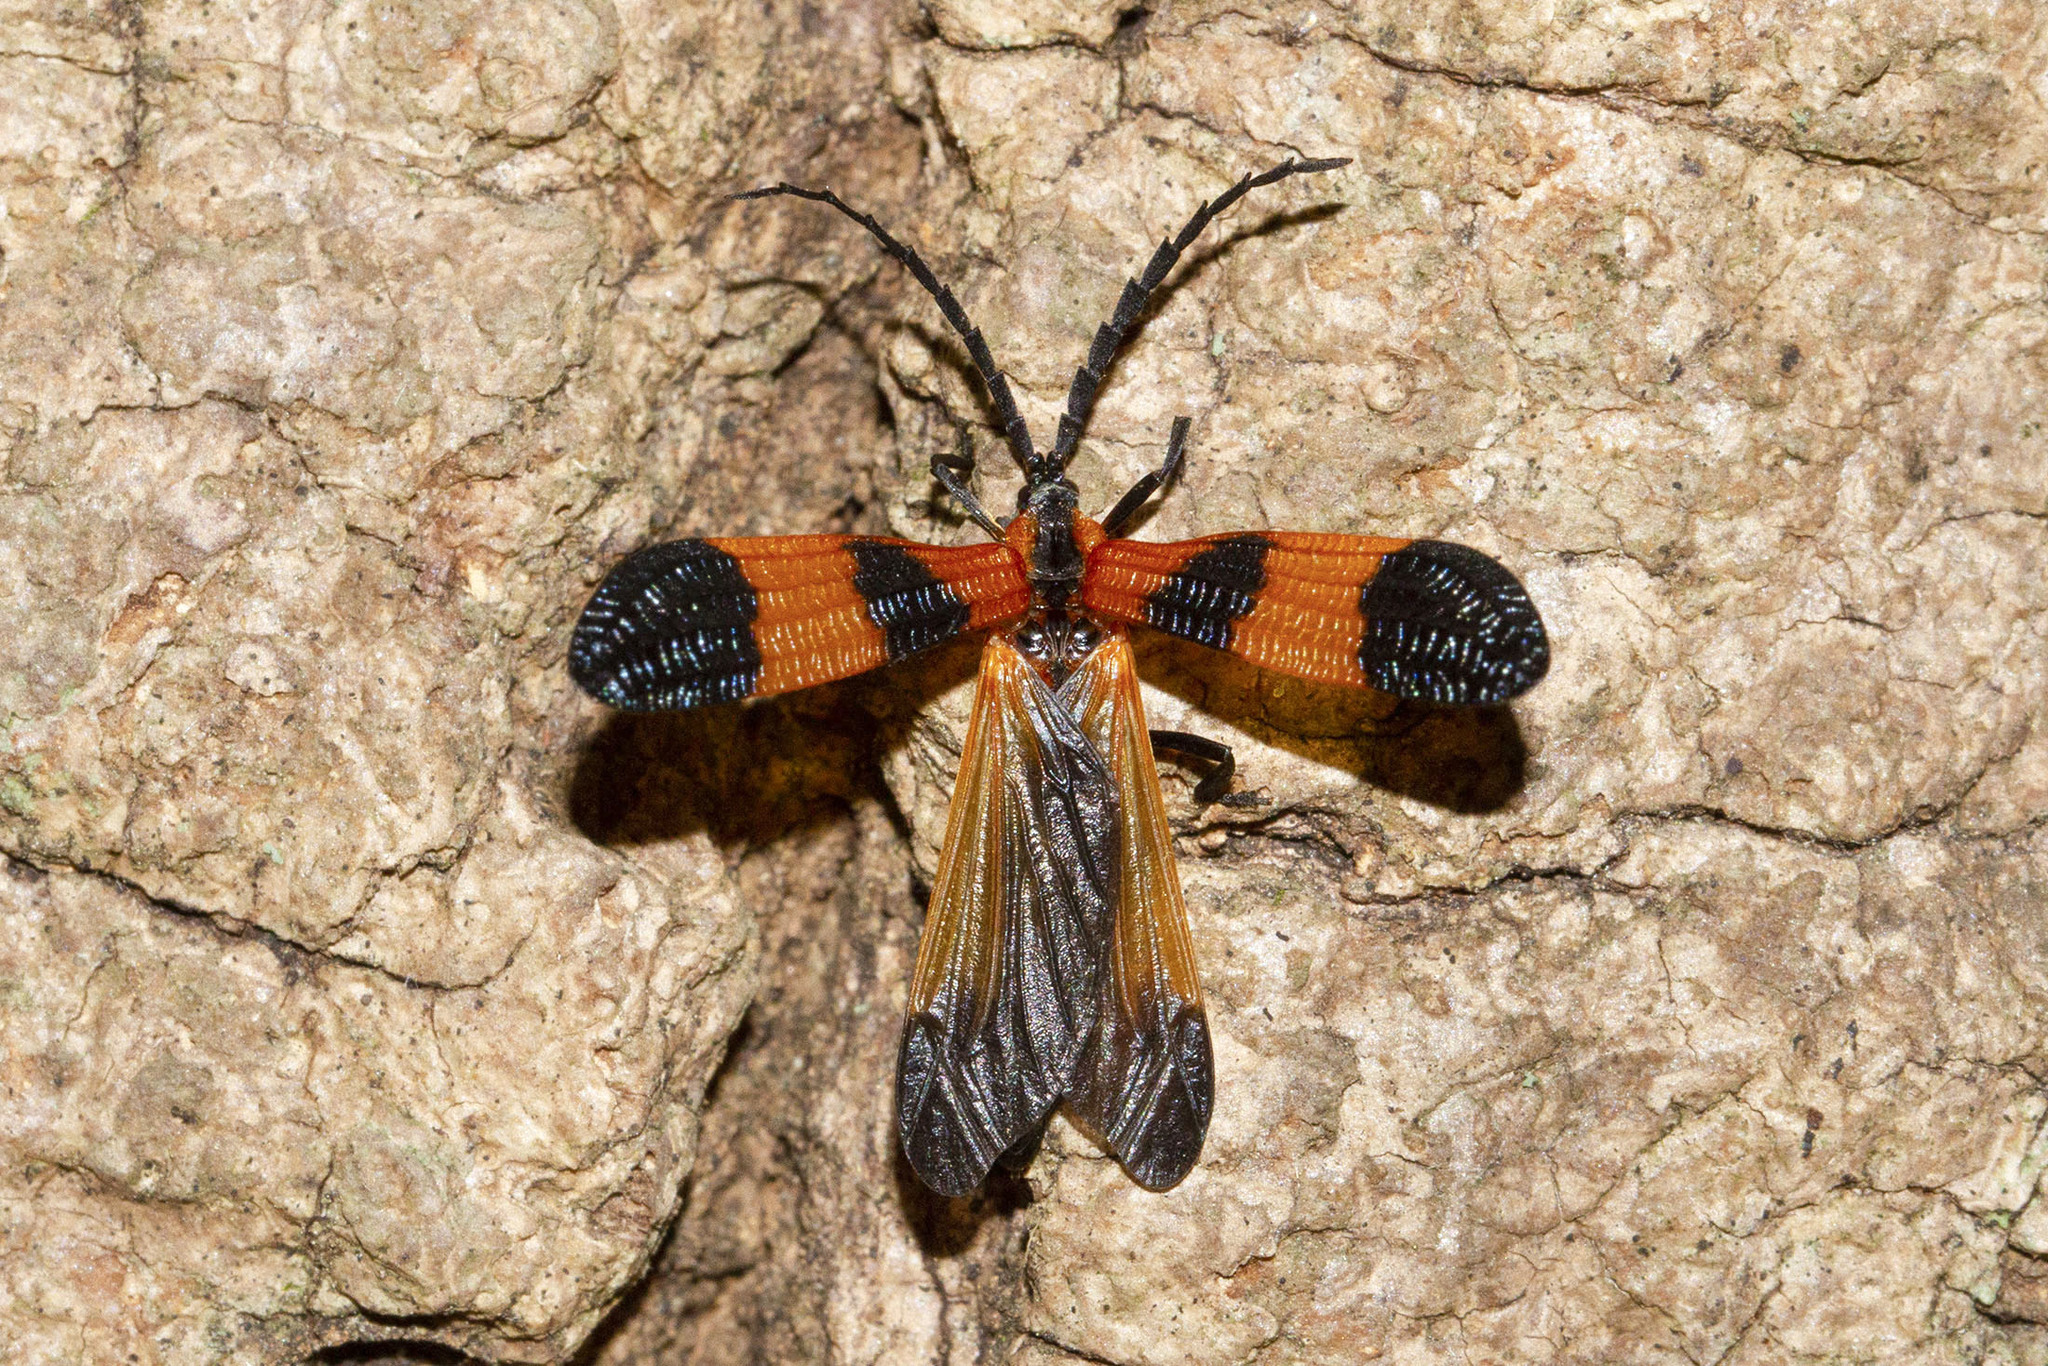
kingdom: Animalia
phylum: Arthropoda
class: Insecta
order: Coleoptera
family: Lycidae
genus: Calopteron
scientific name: Calopteron terminale
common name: End band net-winged beetle
